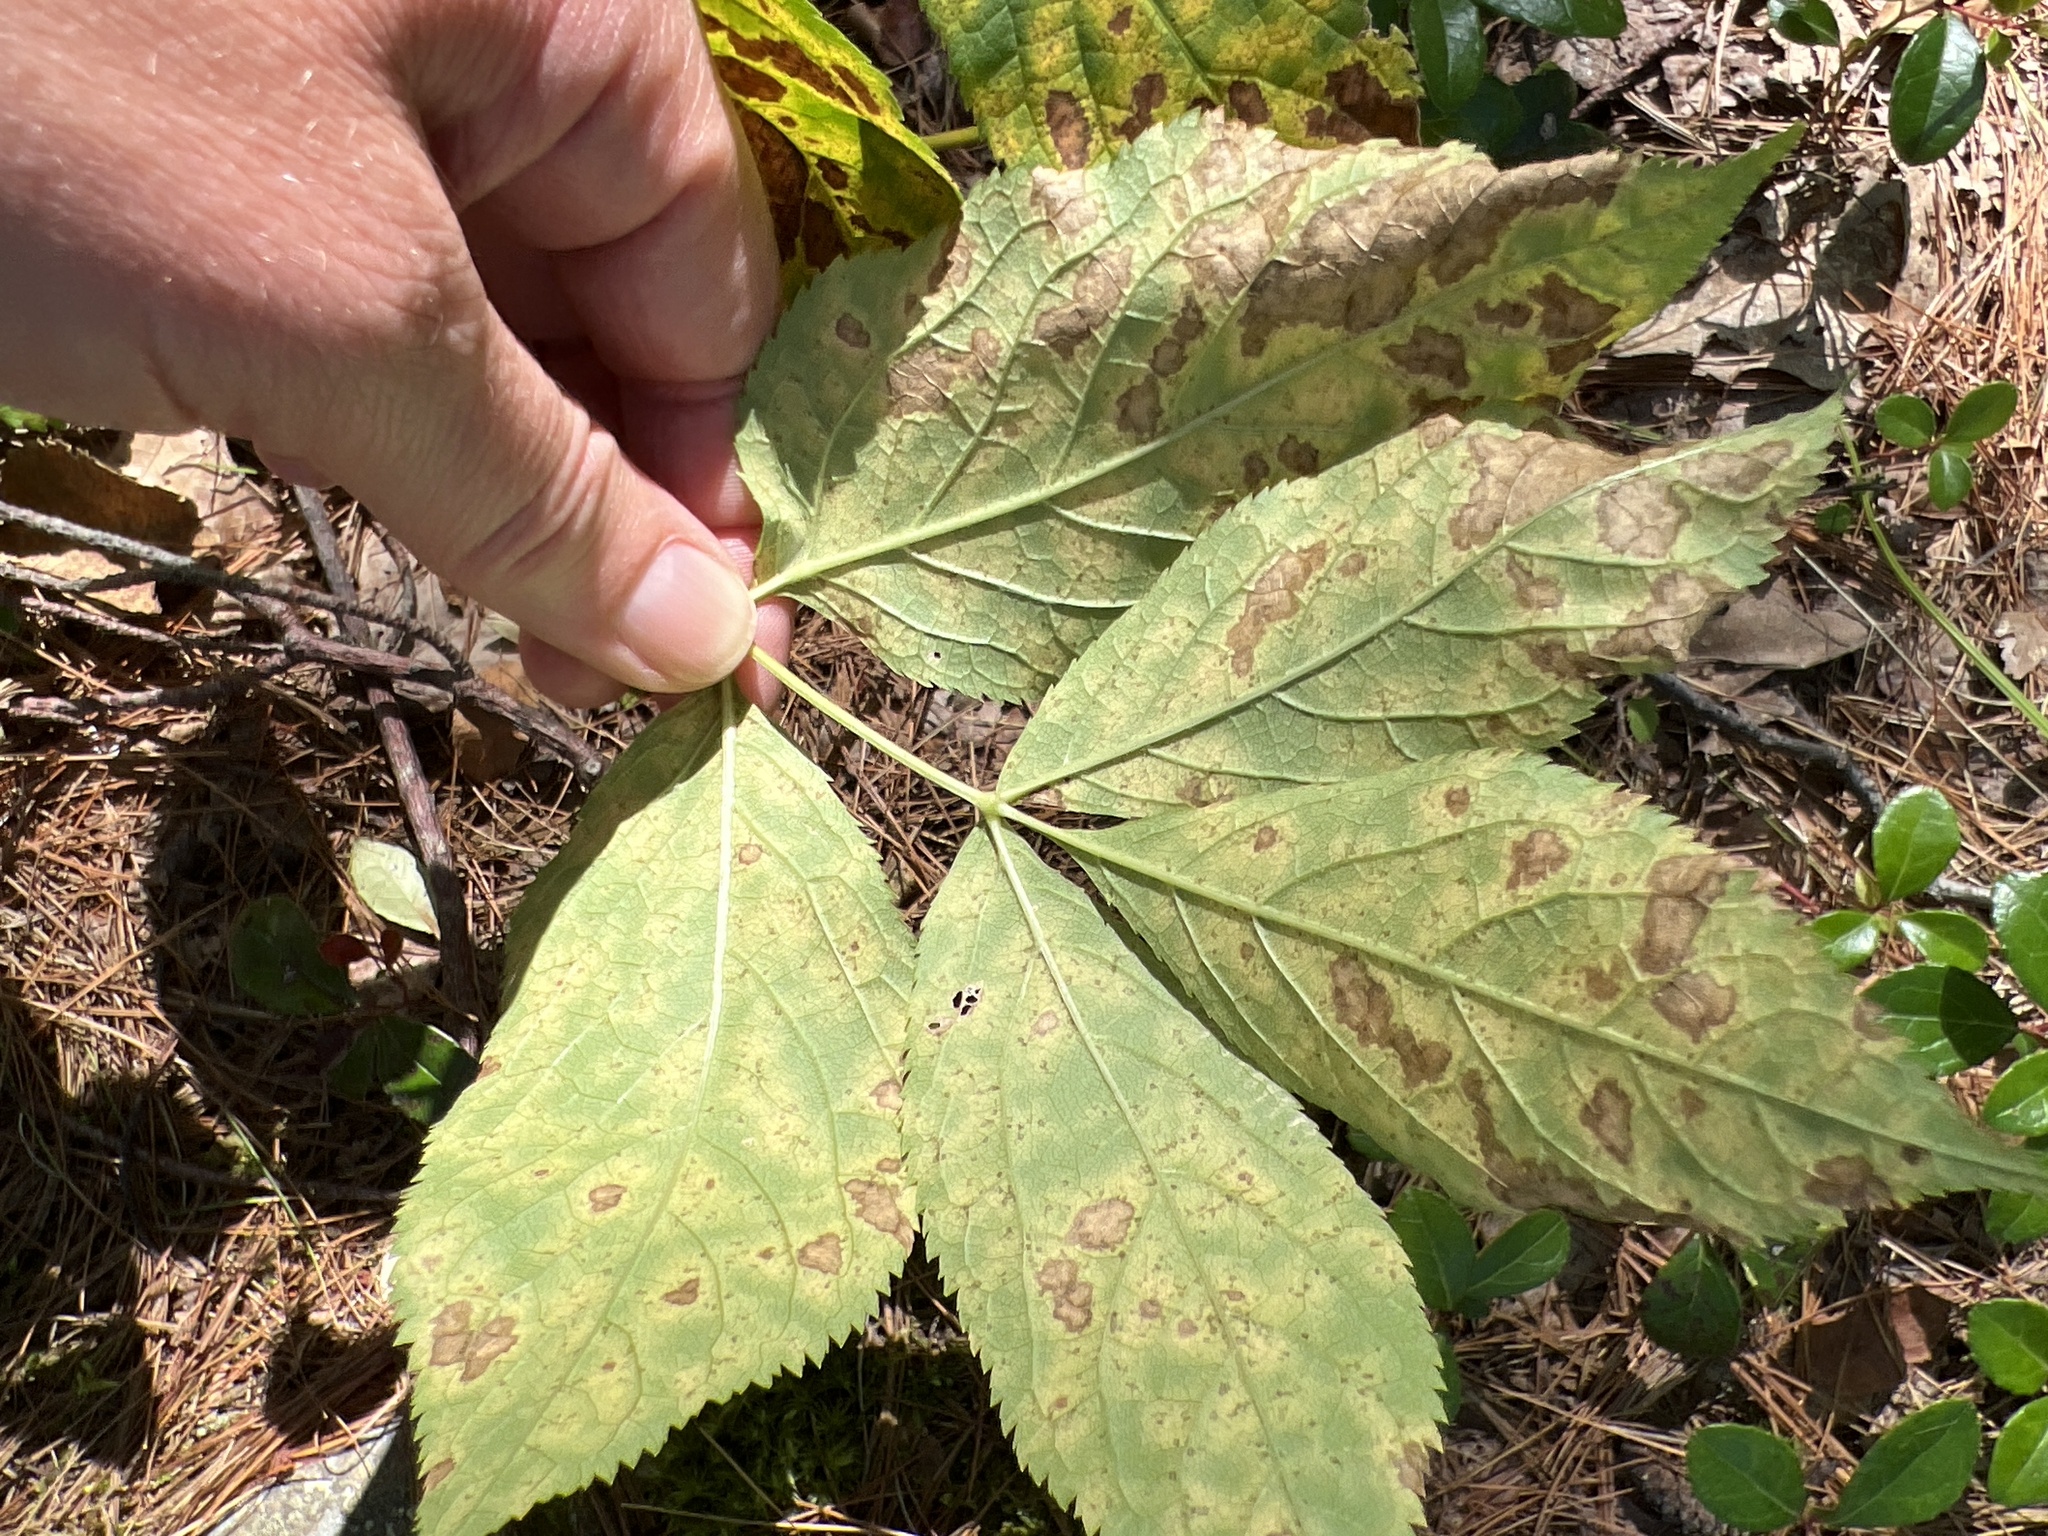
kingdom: Plantae
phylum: Tracheophyta
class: Magnoliopsida
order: Apiales
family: Araliaceae
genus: Aralia
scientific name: Aralia nudicaulis
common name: Wild sarsaparilla
